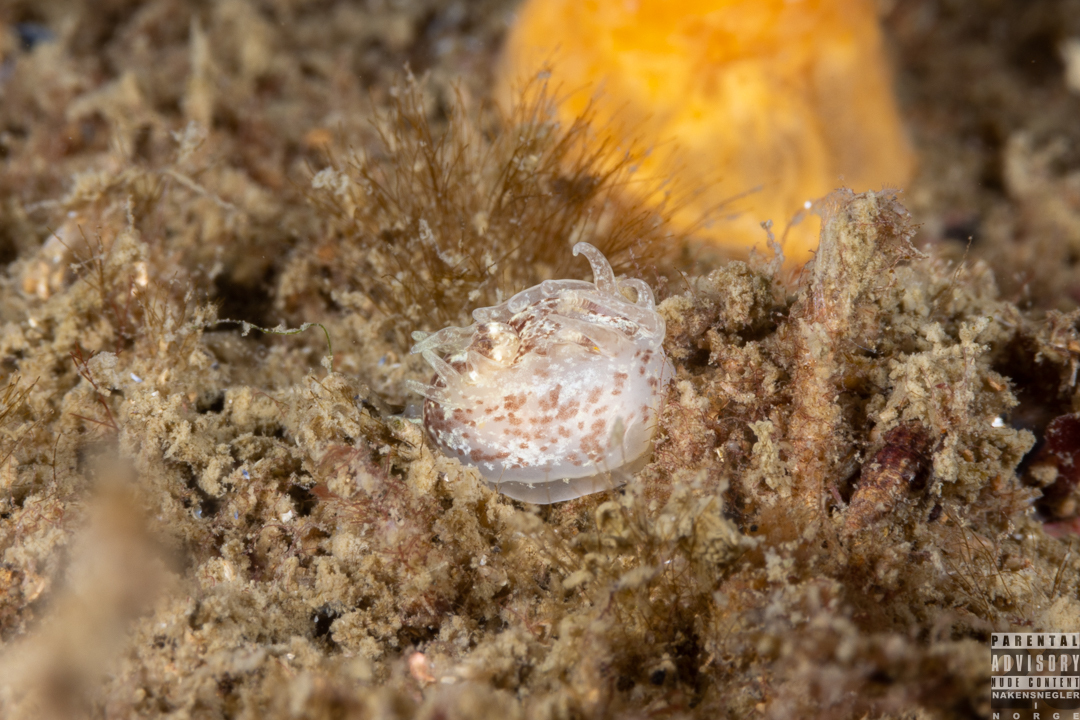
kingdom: Animalia
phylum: Mollusca
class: Gastropoda
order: Nudibranchia
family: Goniodorididae
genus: Okenia
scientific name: Okenia aspersa
